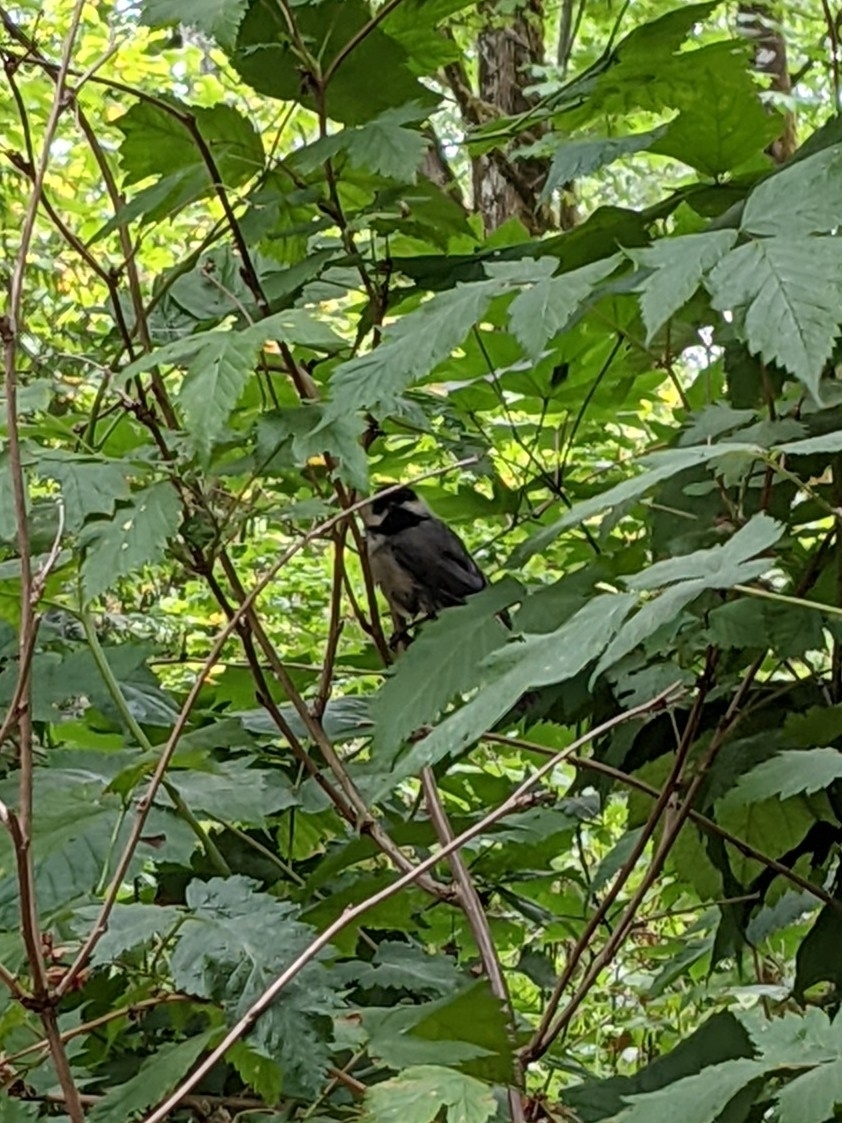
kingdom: Animalia
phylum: Chordata
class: Aves
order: Passeriformes
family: Paridae
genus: Poecile
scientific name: Poecile atricapillus
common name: Black-capped chickadee
